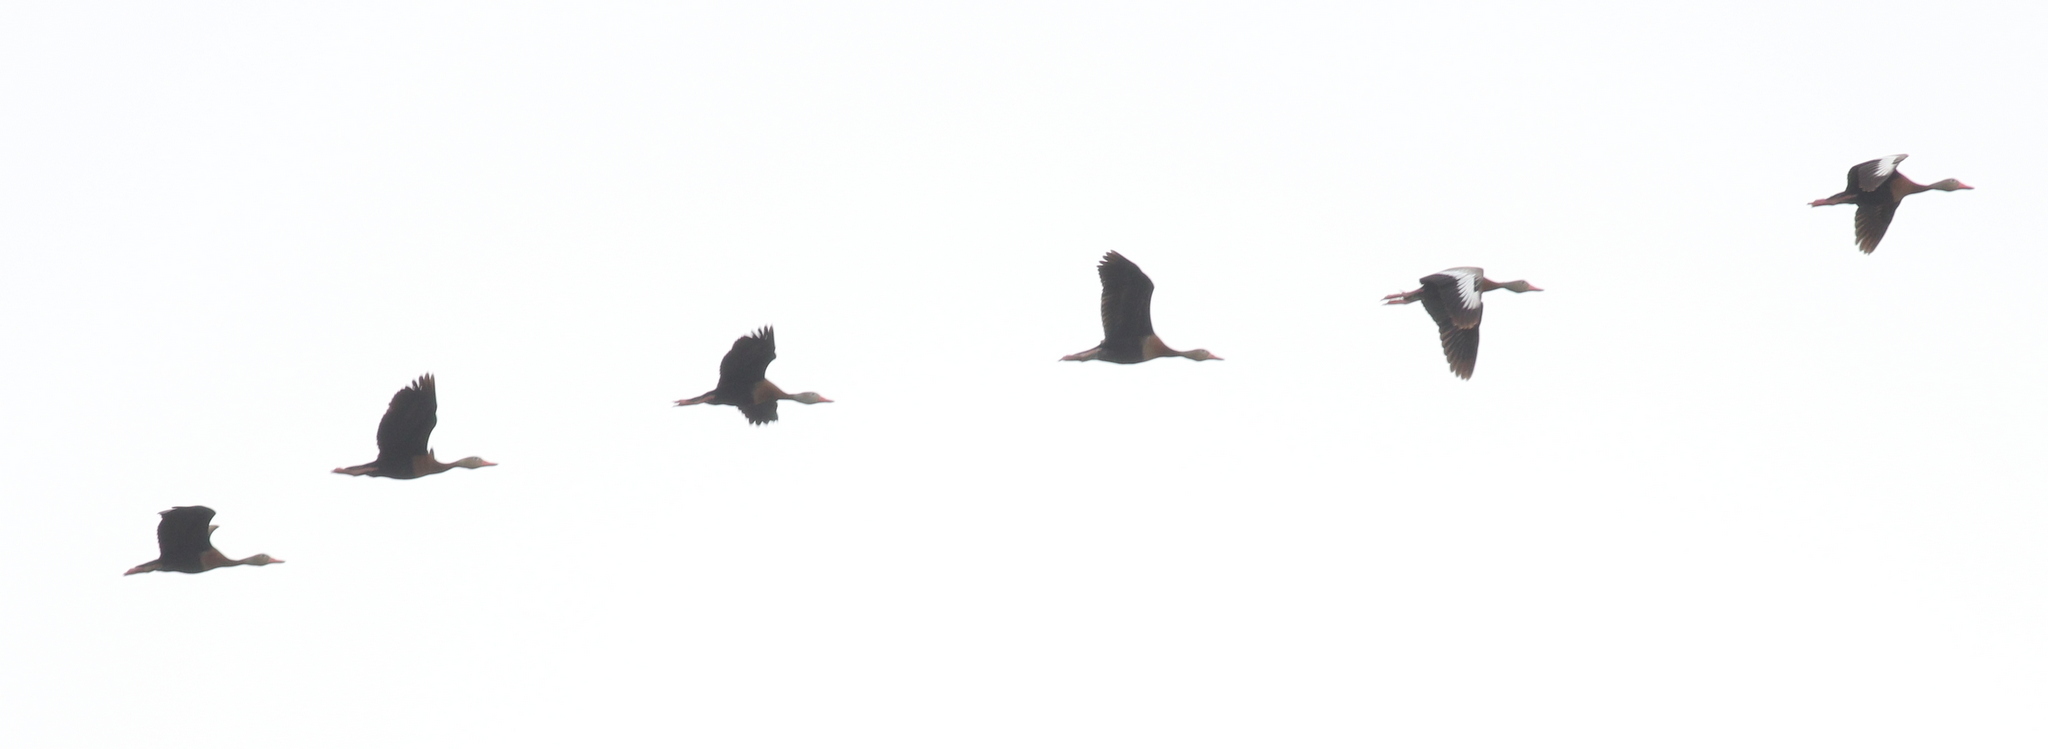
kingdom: Animalia
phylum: Chordata
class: Aves
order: Anseriformes
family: Anatidae
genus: Dendrocygna
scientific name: Dendrocygna autumnalis
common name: Black-bellied whistling duck
